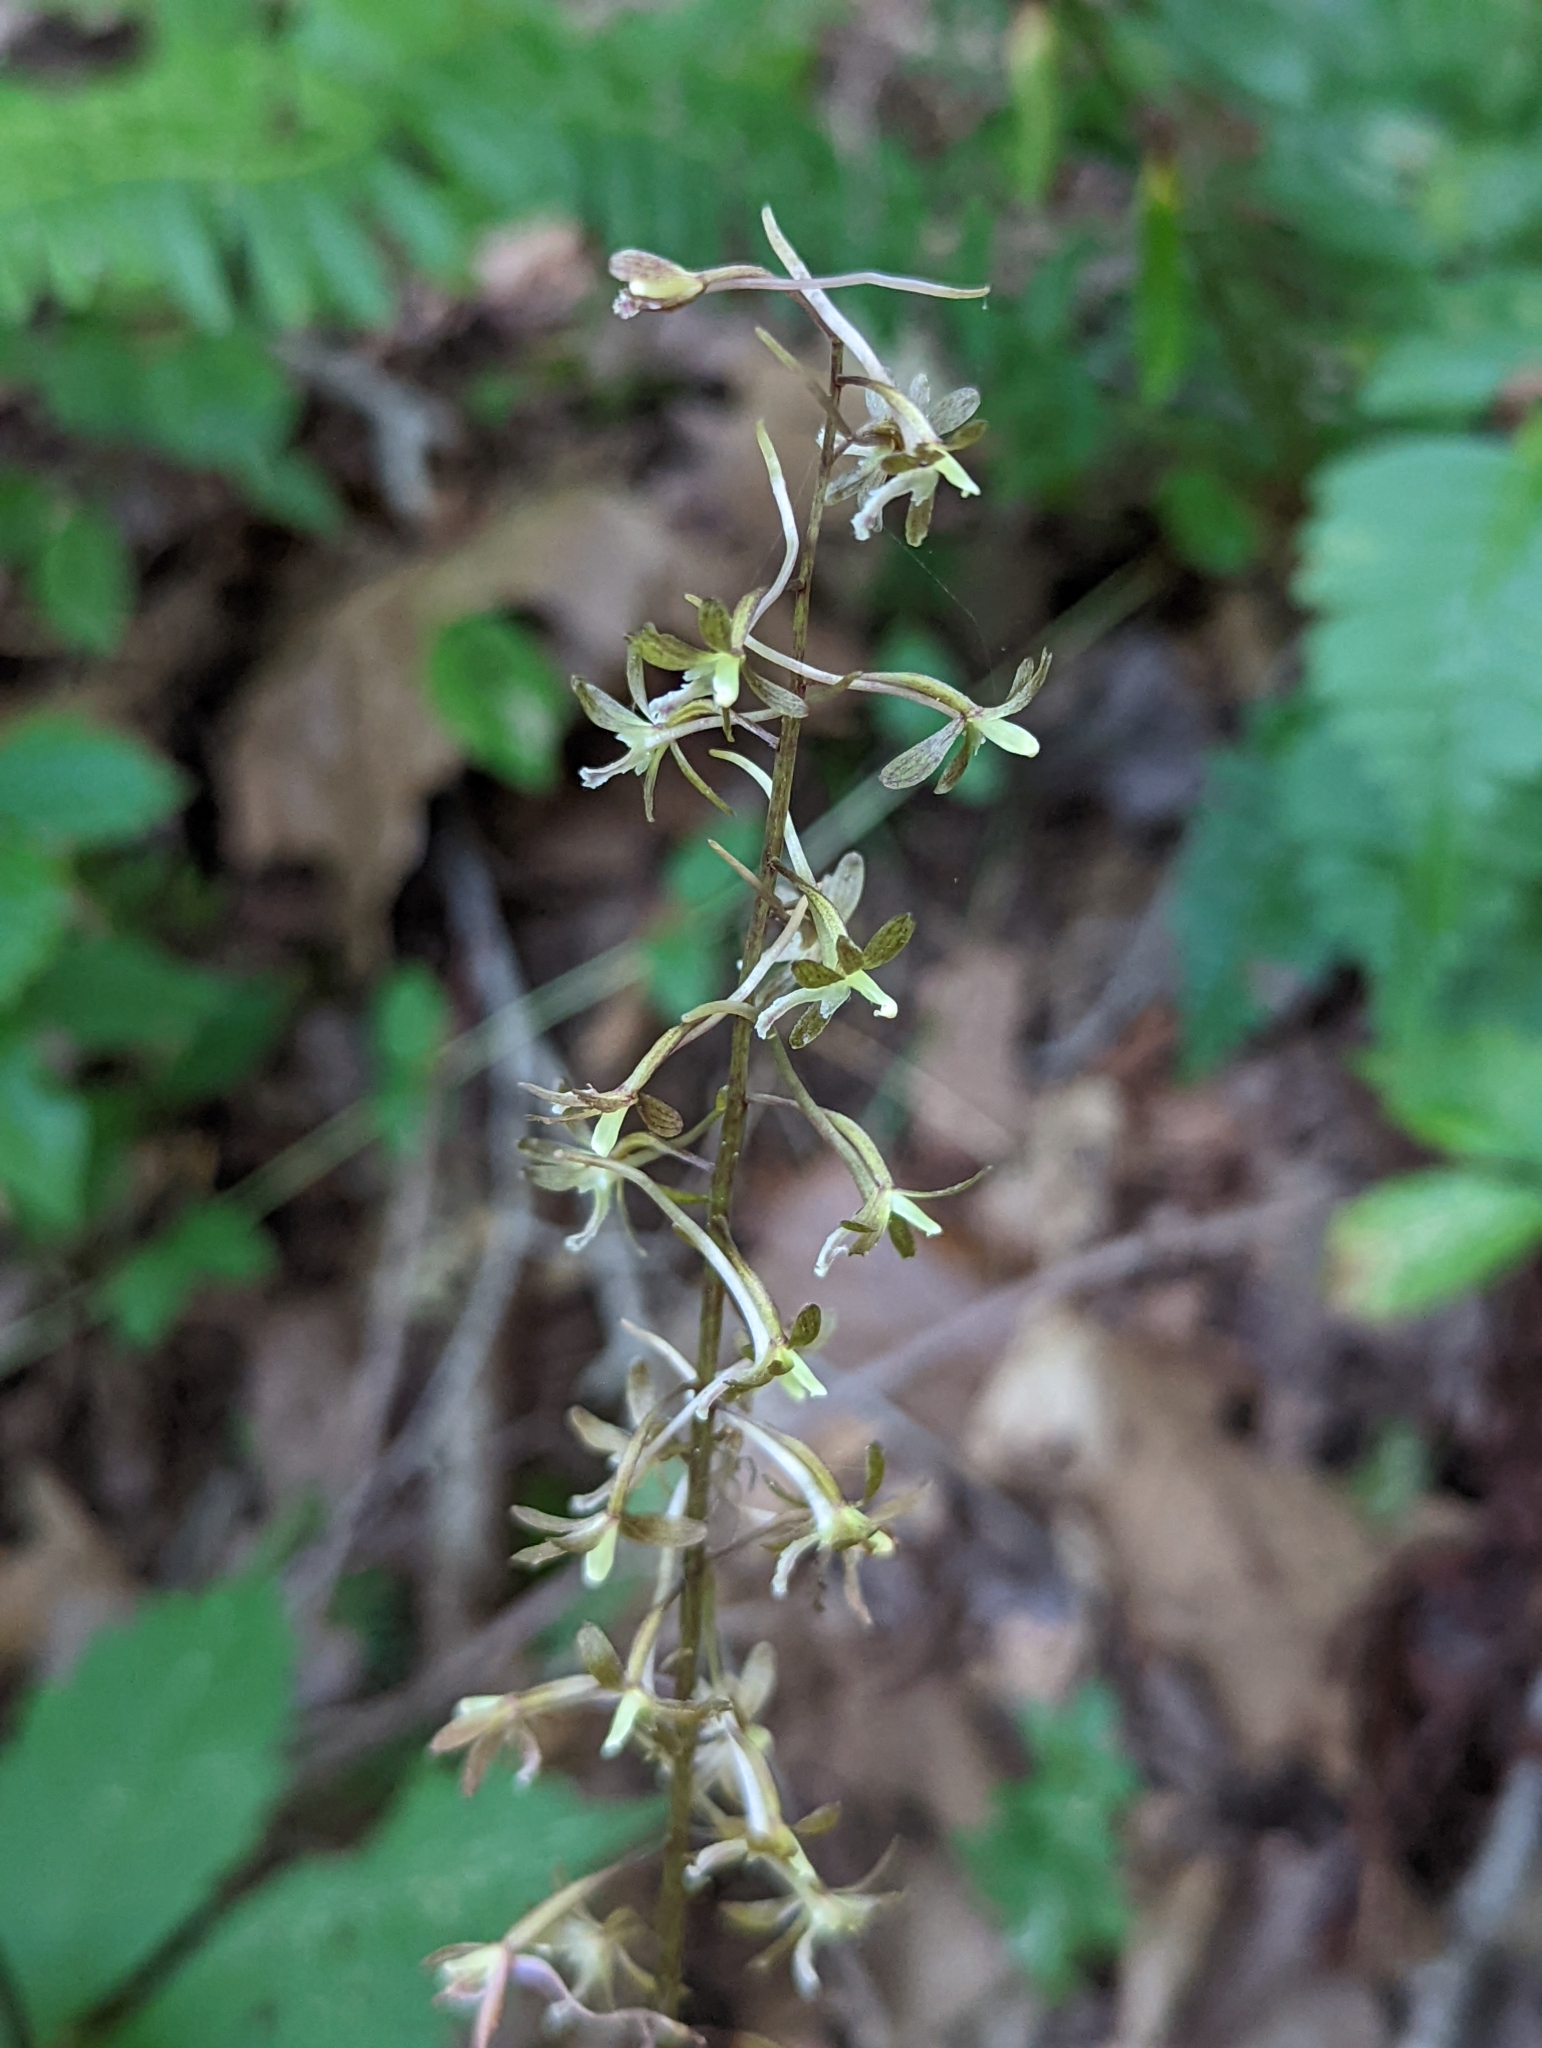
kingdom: Plantae
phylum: Tracheophyta
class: Liliopsida
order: Asparagales
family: Orchidaceae
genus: Tipularia
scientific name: Tipularia discolor
